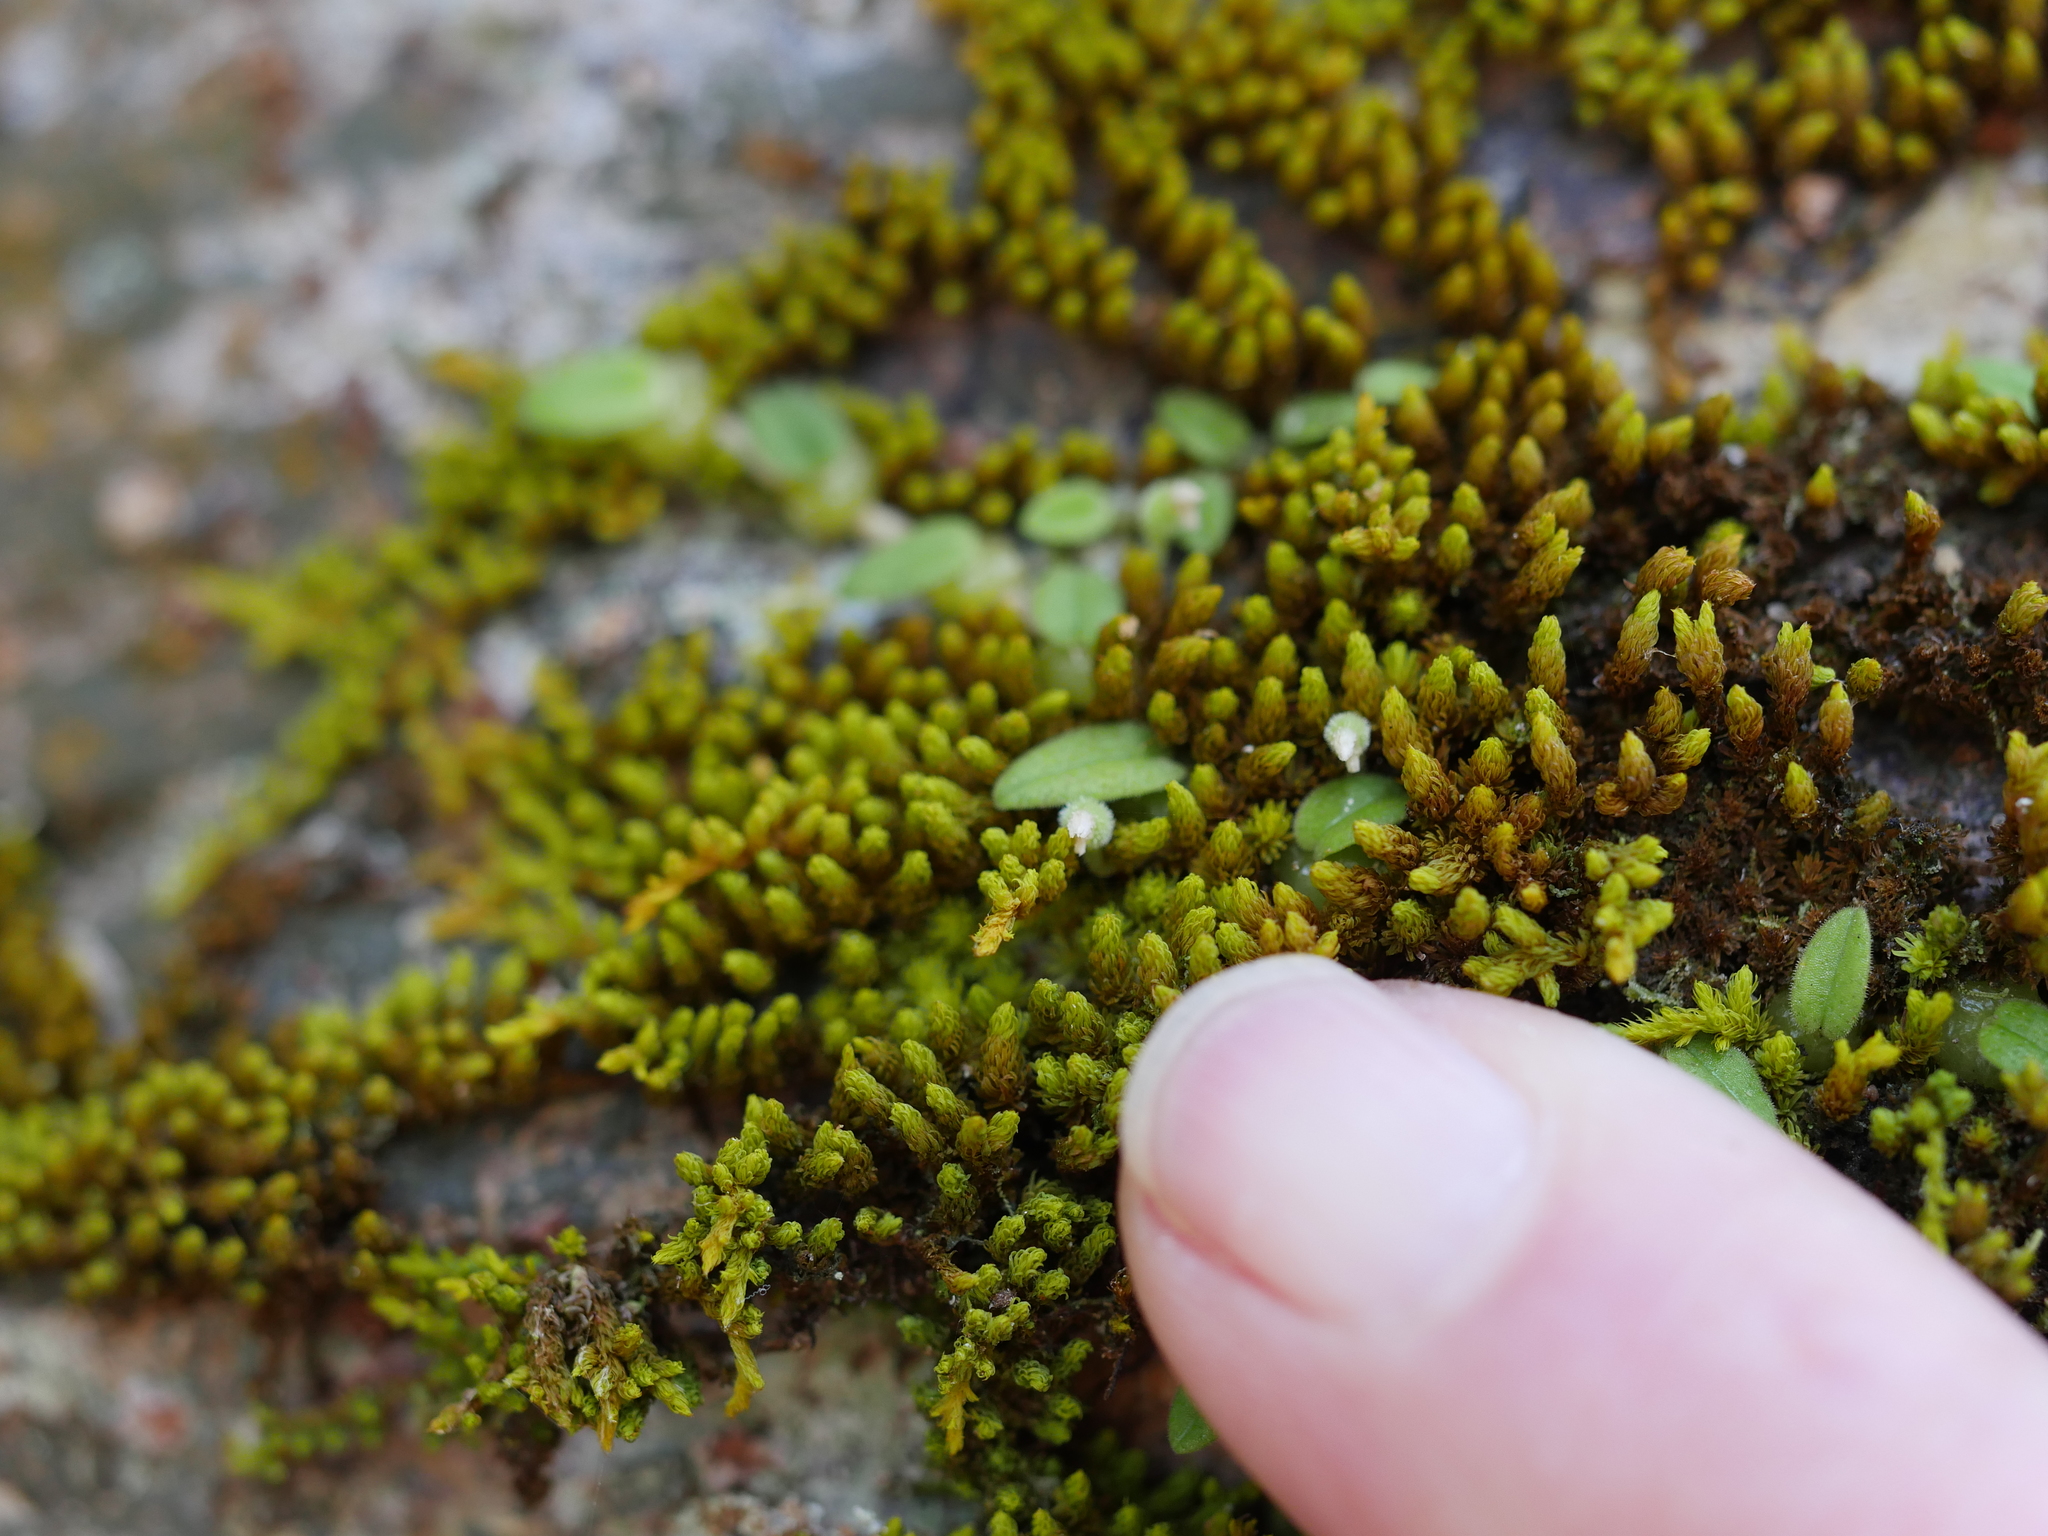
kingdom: Plantae
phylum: Tracheophyta
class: Liliopsida
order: Asparagales
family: Orchidaceae
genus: Bulbophyllum
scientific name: Bulbophyllum pygmaeum
